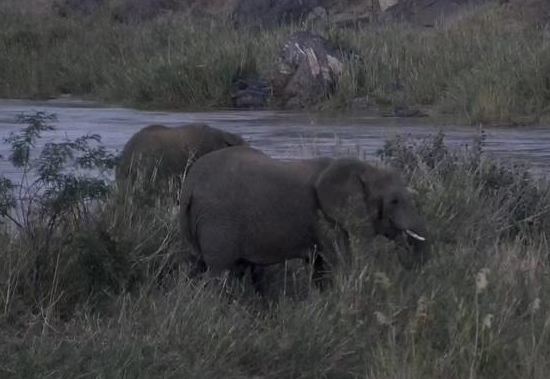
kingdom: Animalia
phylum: Chordata
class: Mammalia
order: Proboscidea
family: Elephantidae
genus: Loxodonta
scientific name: Loxodonta africana
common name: African elephant
